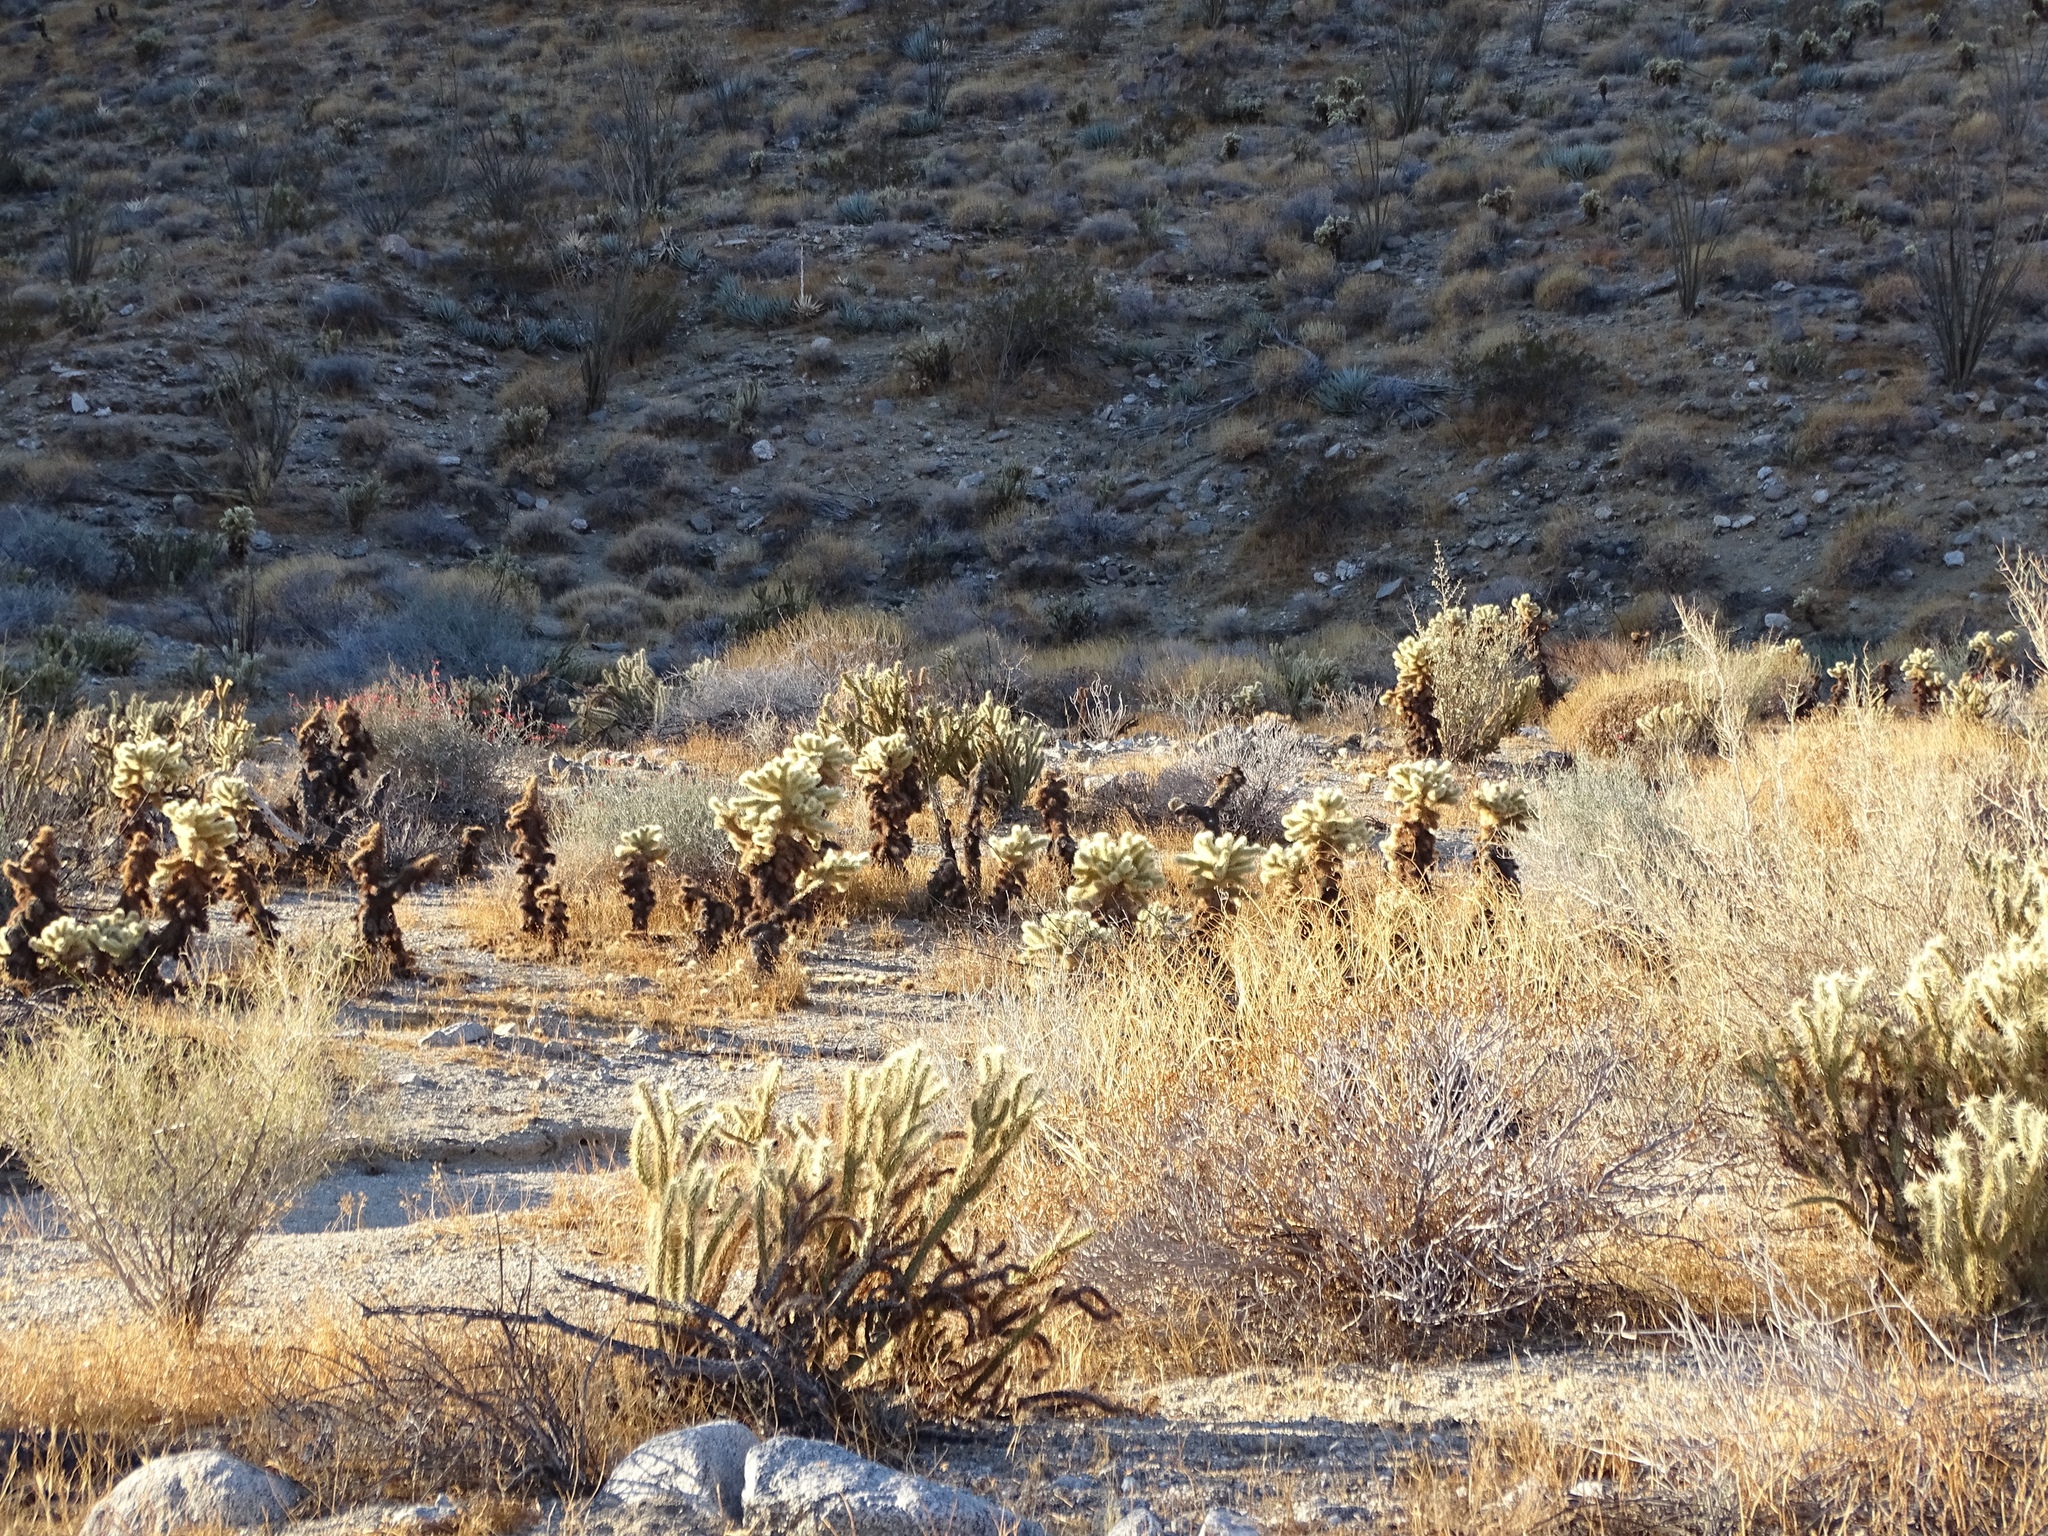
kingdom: Plantae
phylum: Tracheophyta
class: Magnoliopsida
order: Caryophyllales
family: Cactaceae
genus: Cylindropuntia
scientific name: Cylindropuntia fosbergii
